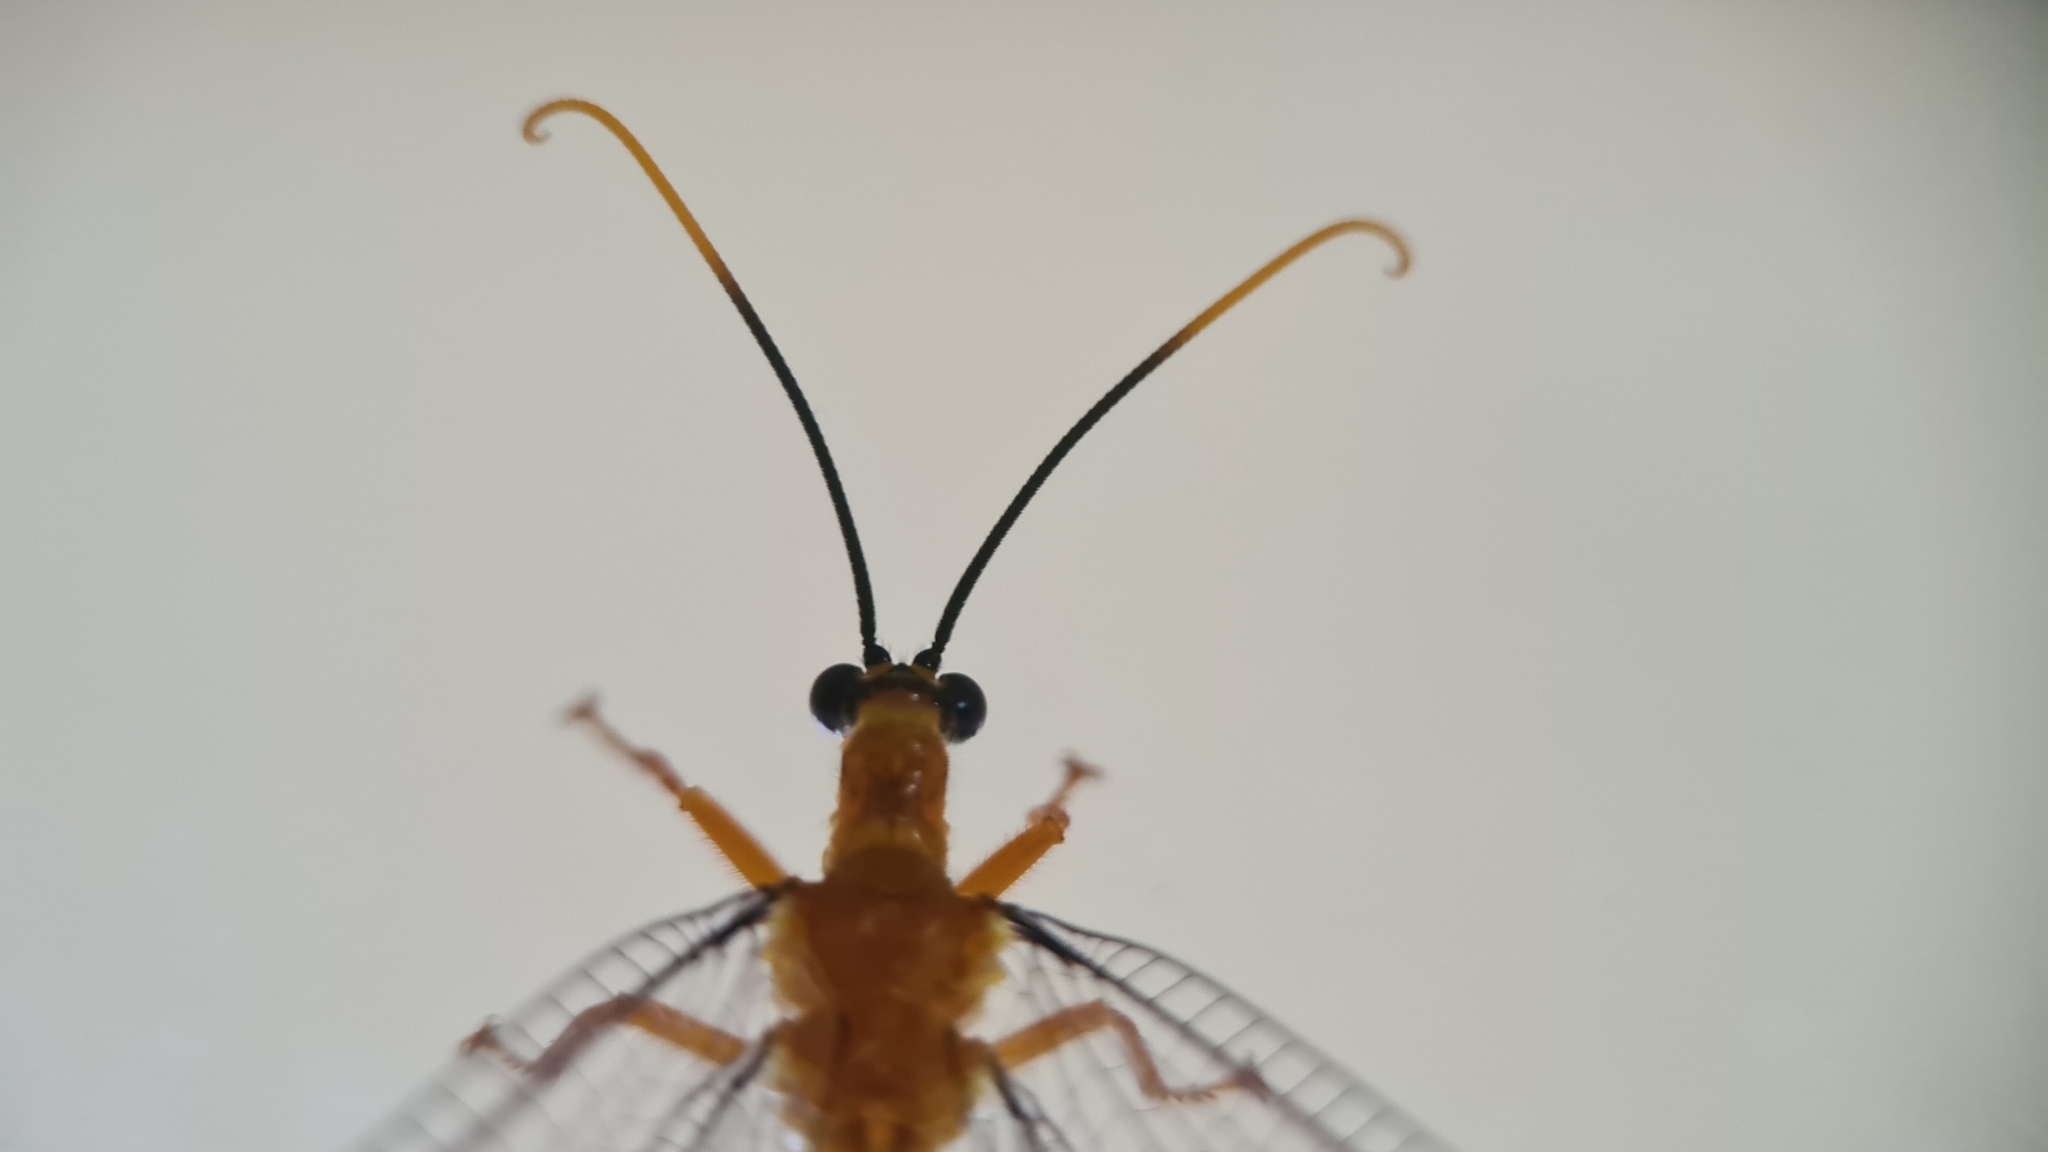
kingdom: Animalia
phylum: Arthropoda
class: Insecta
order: Neuroptera
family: Nymphidae
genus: Nymphes
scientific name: Nymphes myrmeleonoides
